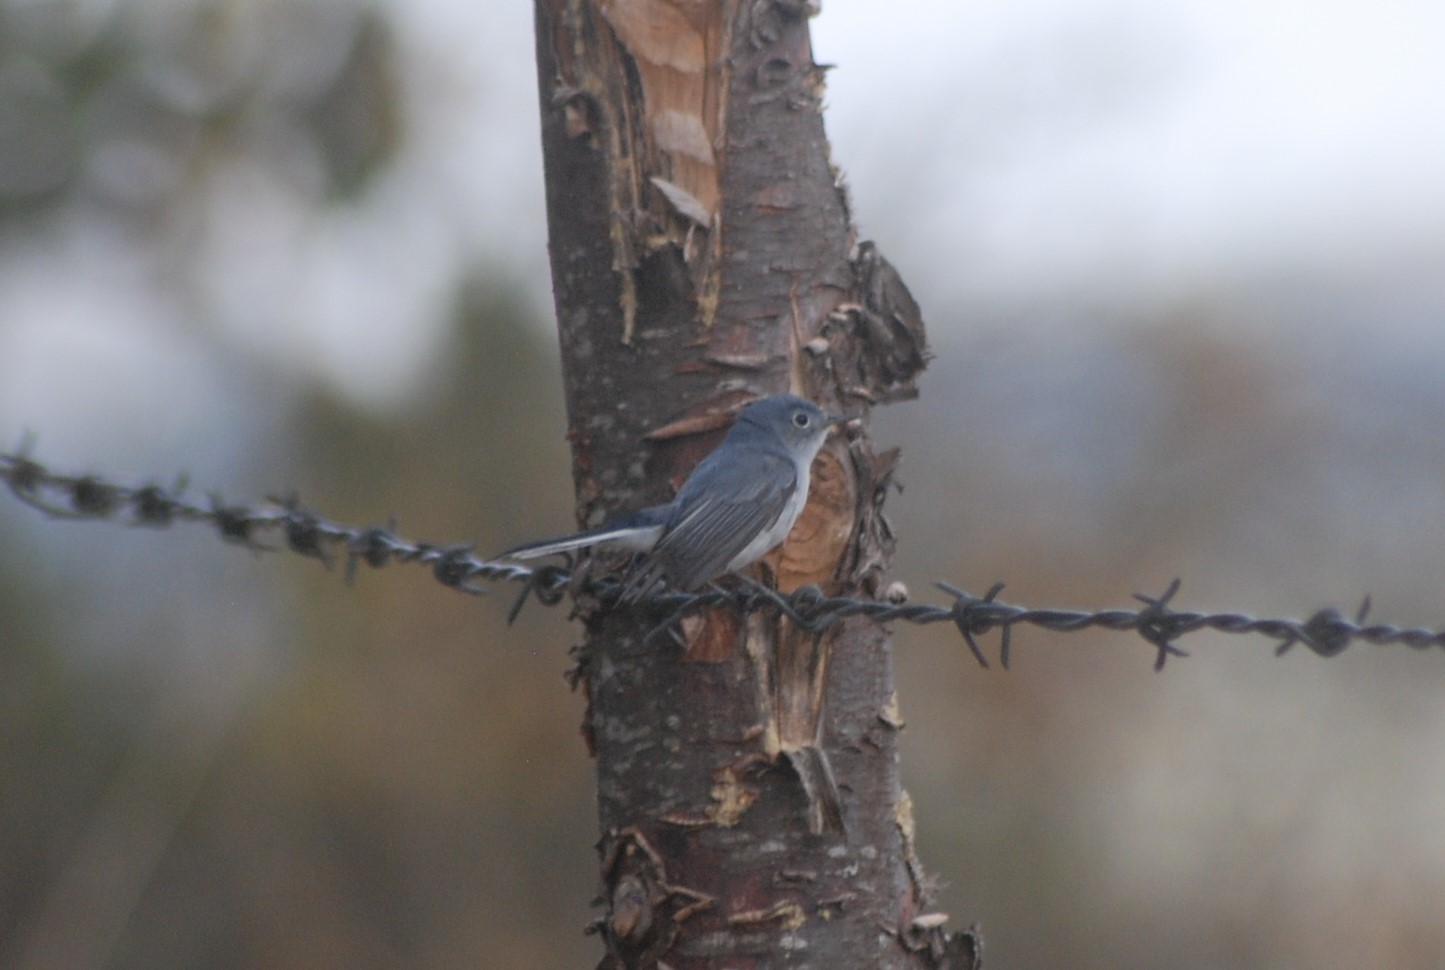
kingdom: Animalia
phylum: Chordata
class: Aves
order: Passeriformes
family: Polioptilidae
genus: Polioptila
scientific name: Polioptila caerulea
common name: Blue-gray gnatcatcher
